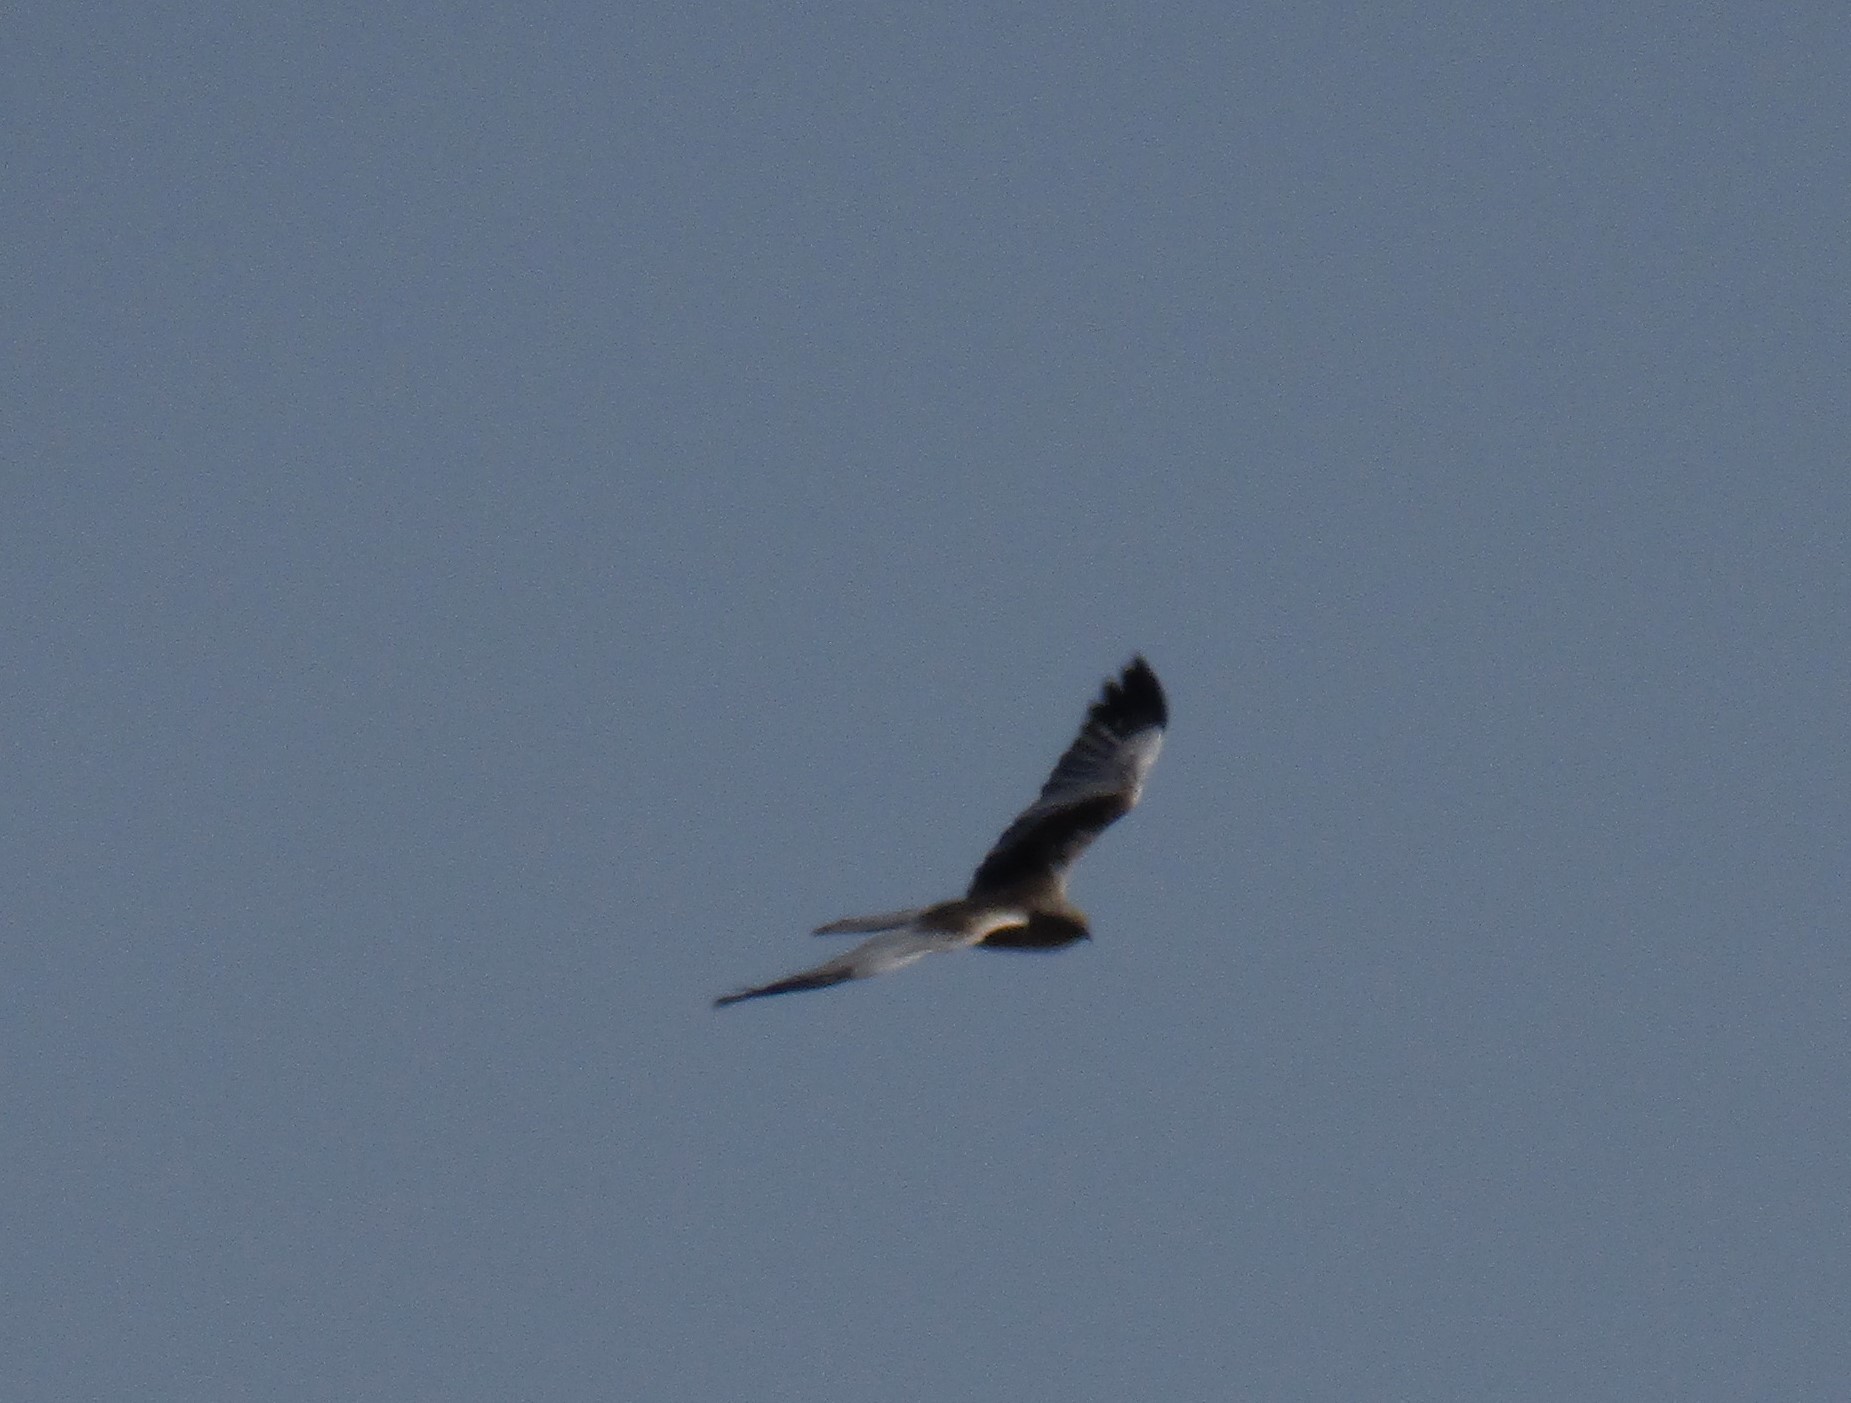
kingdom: Animalia
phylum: Chordata
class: Aves
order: Accipitriformes
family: Accipitridae
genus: Circus
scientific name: Circus aeruginosus
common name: Western marsh harrier
